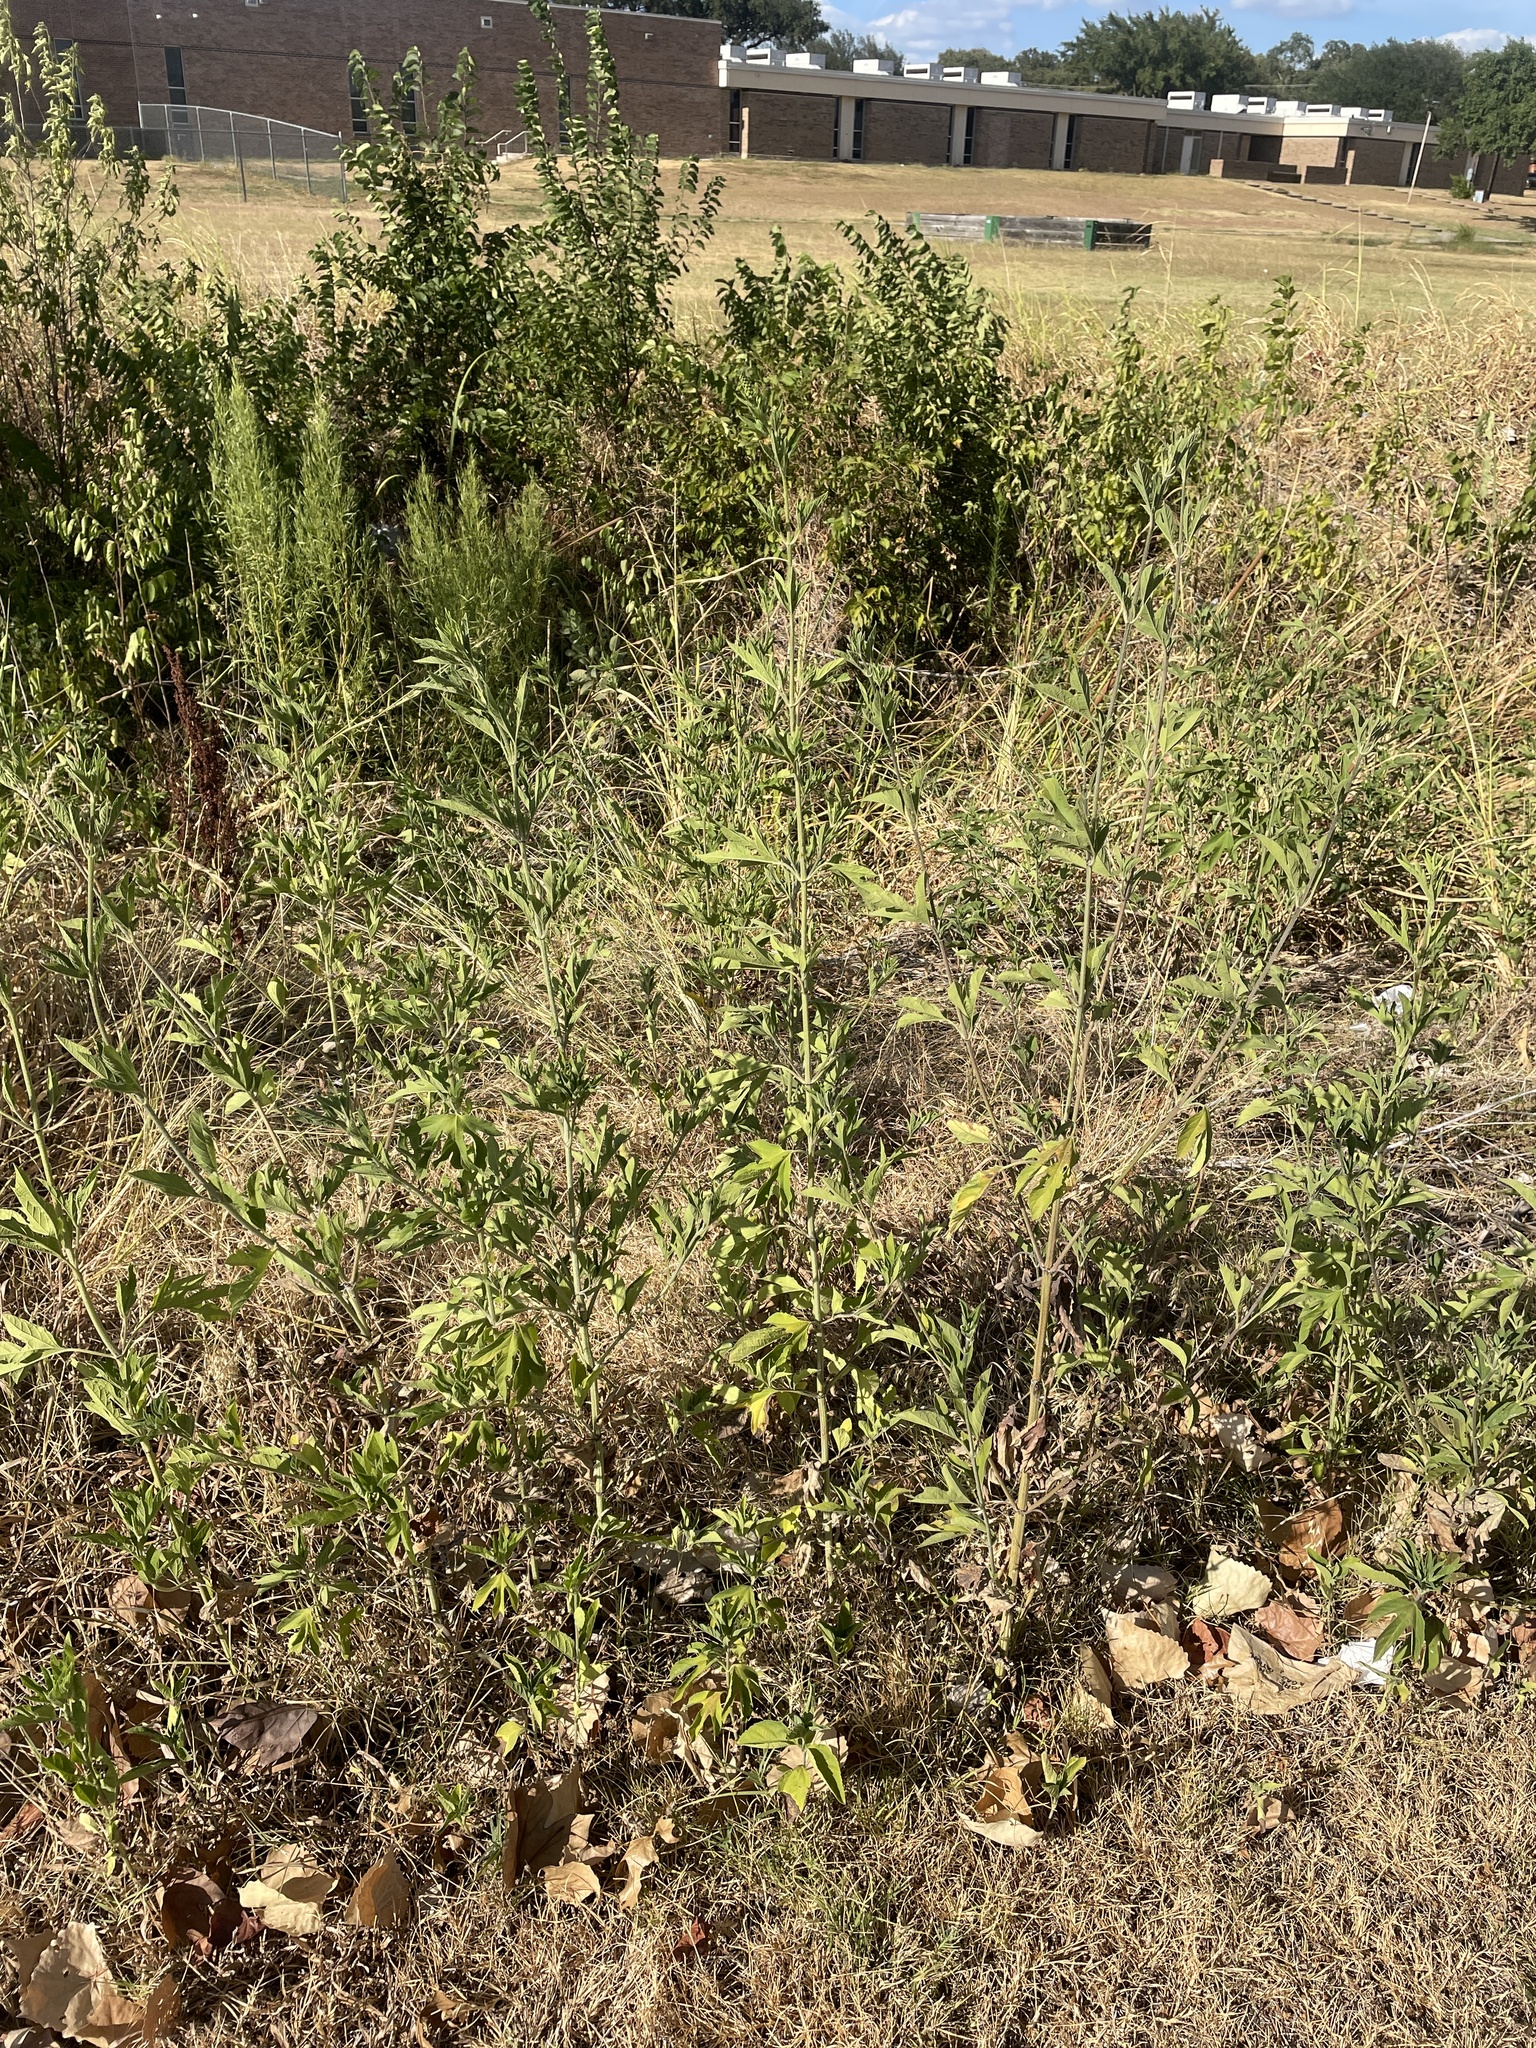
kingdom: Plantae
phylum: Tracheophyta
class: Magnoliopsida
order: Asterales
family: Asteraceae
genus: Ambrosia
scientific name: Ambrosia trifida
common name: Giant ragweed
